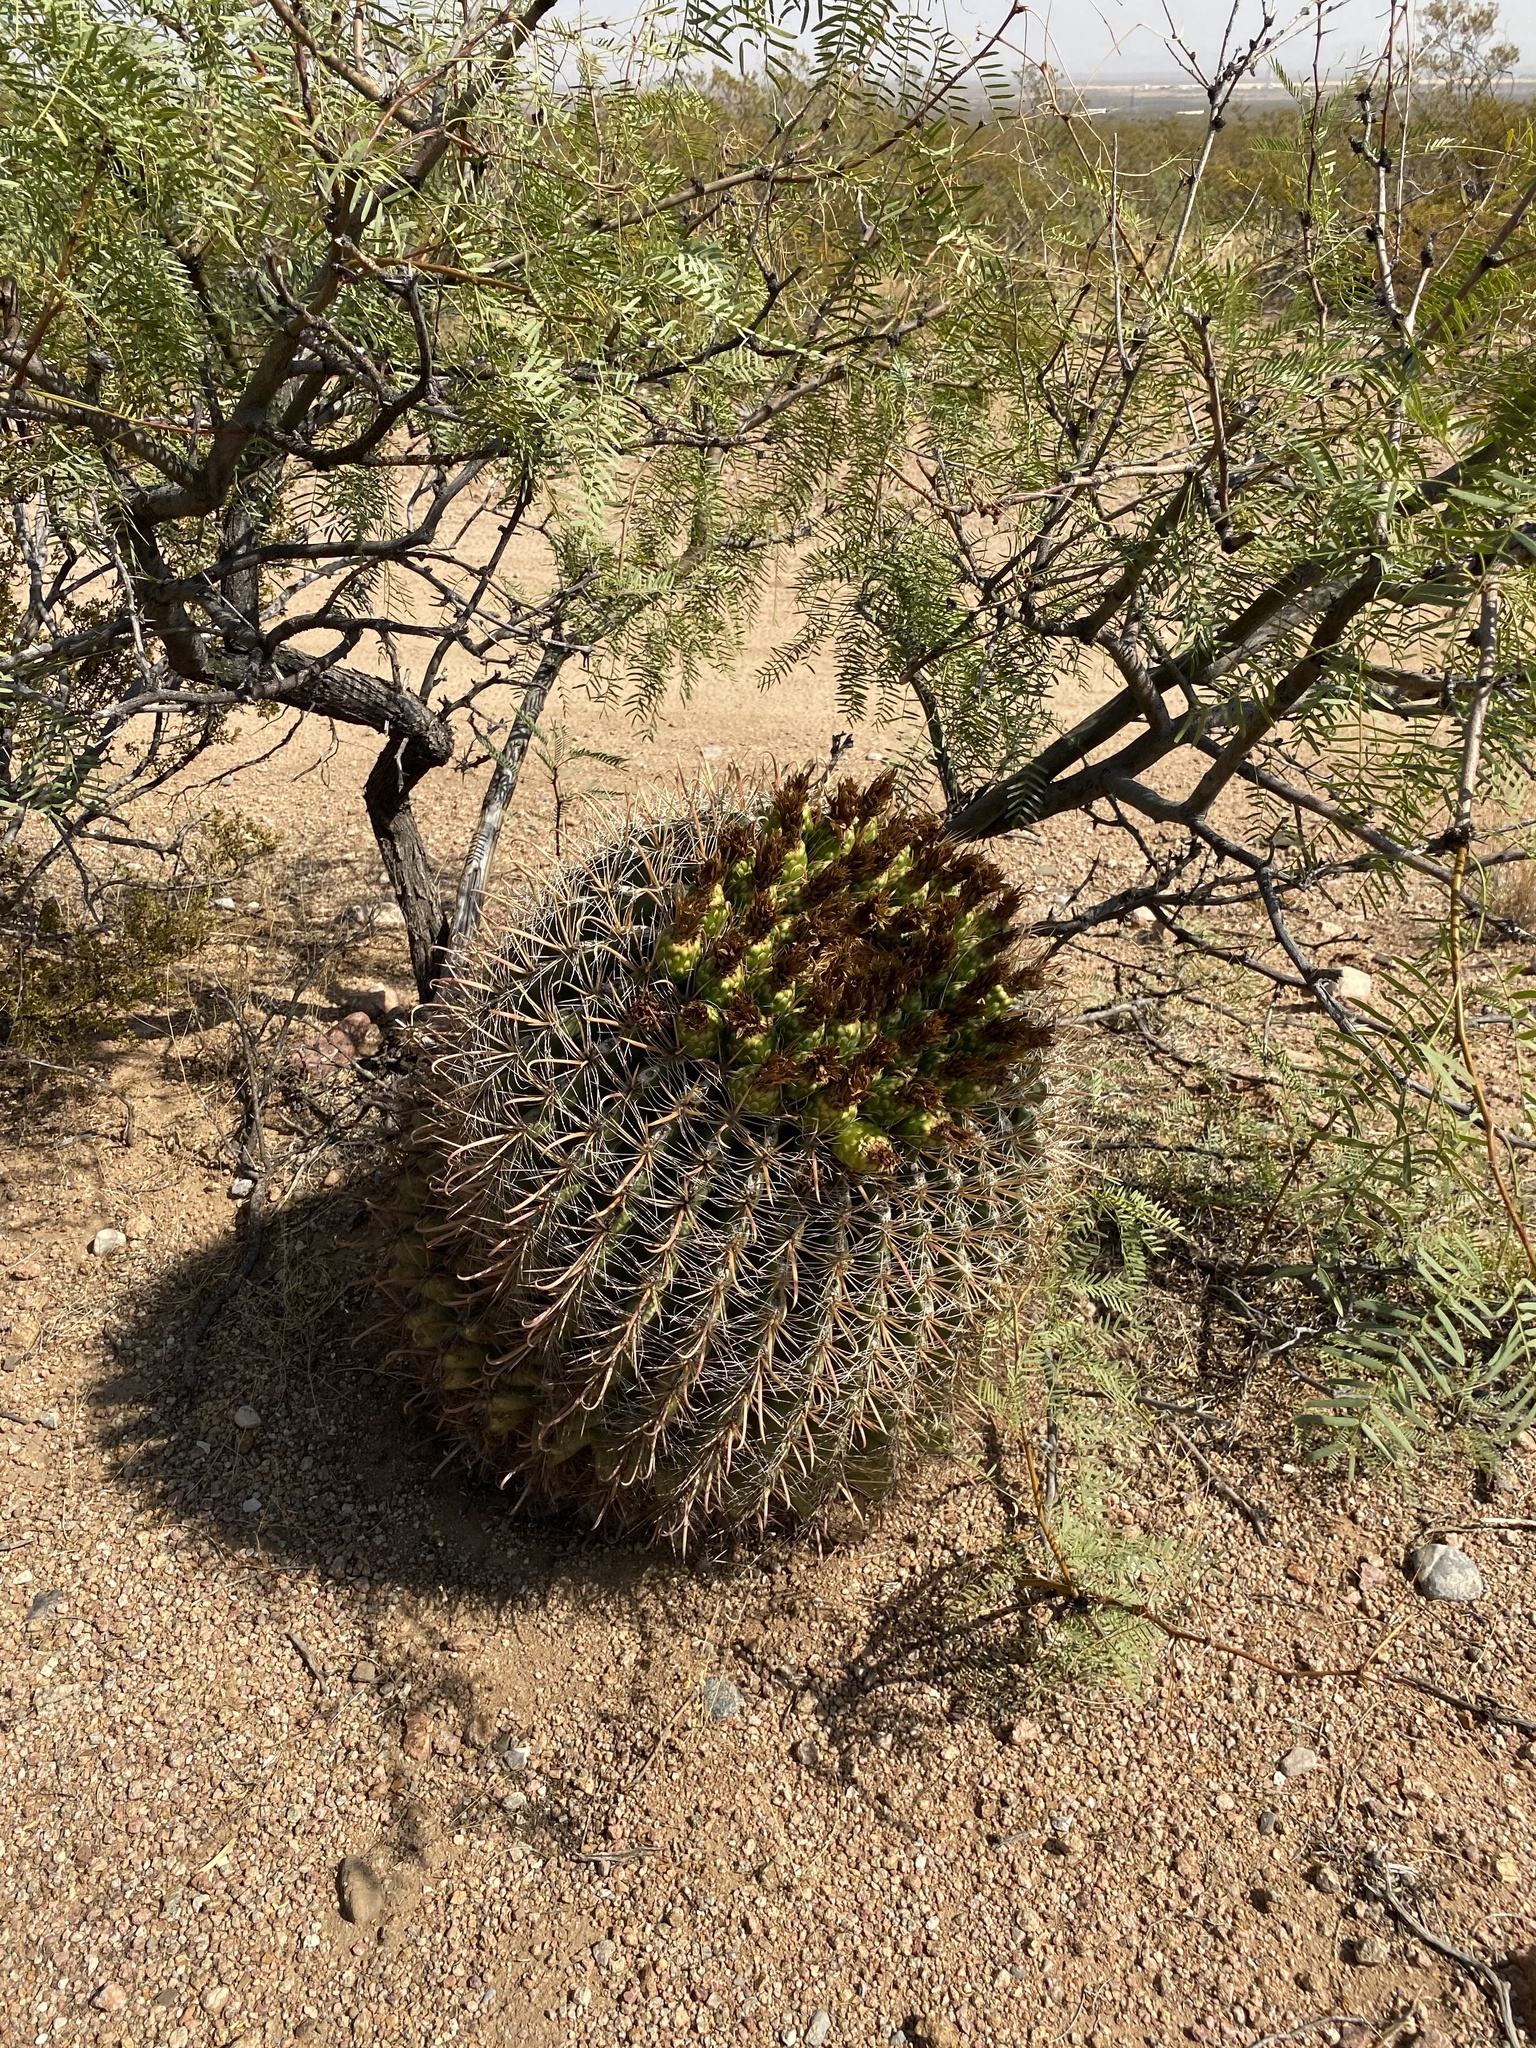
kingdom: Plantae
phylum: Tracheophyta
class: Magnoliopsida
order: Caryophyllales
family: Cactaceae
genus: Ferocactus
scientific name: Ferocactus wislizeni
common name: Candy barrel cactus
